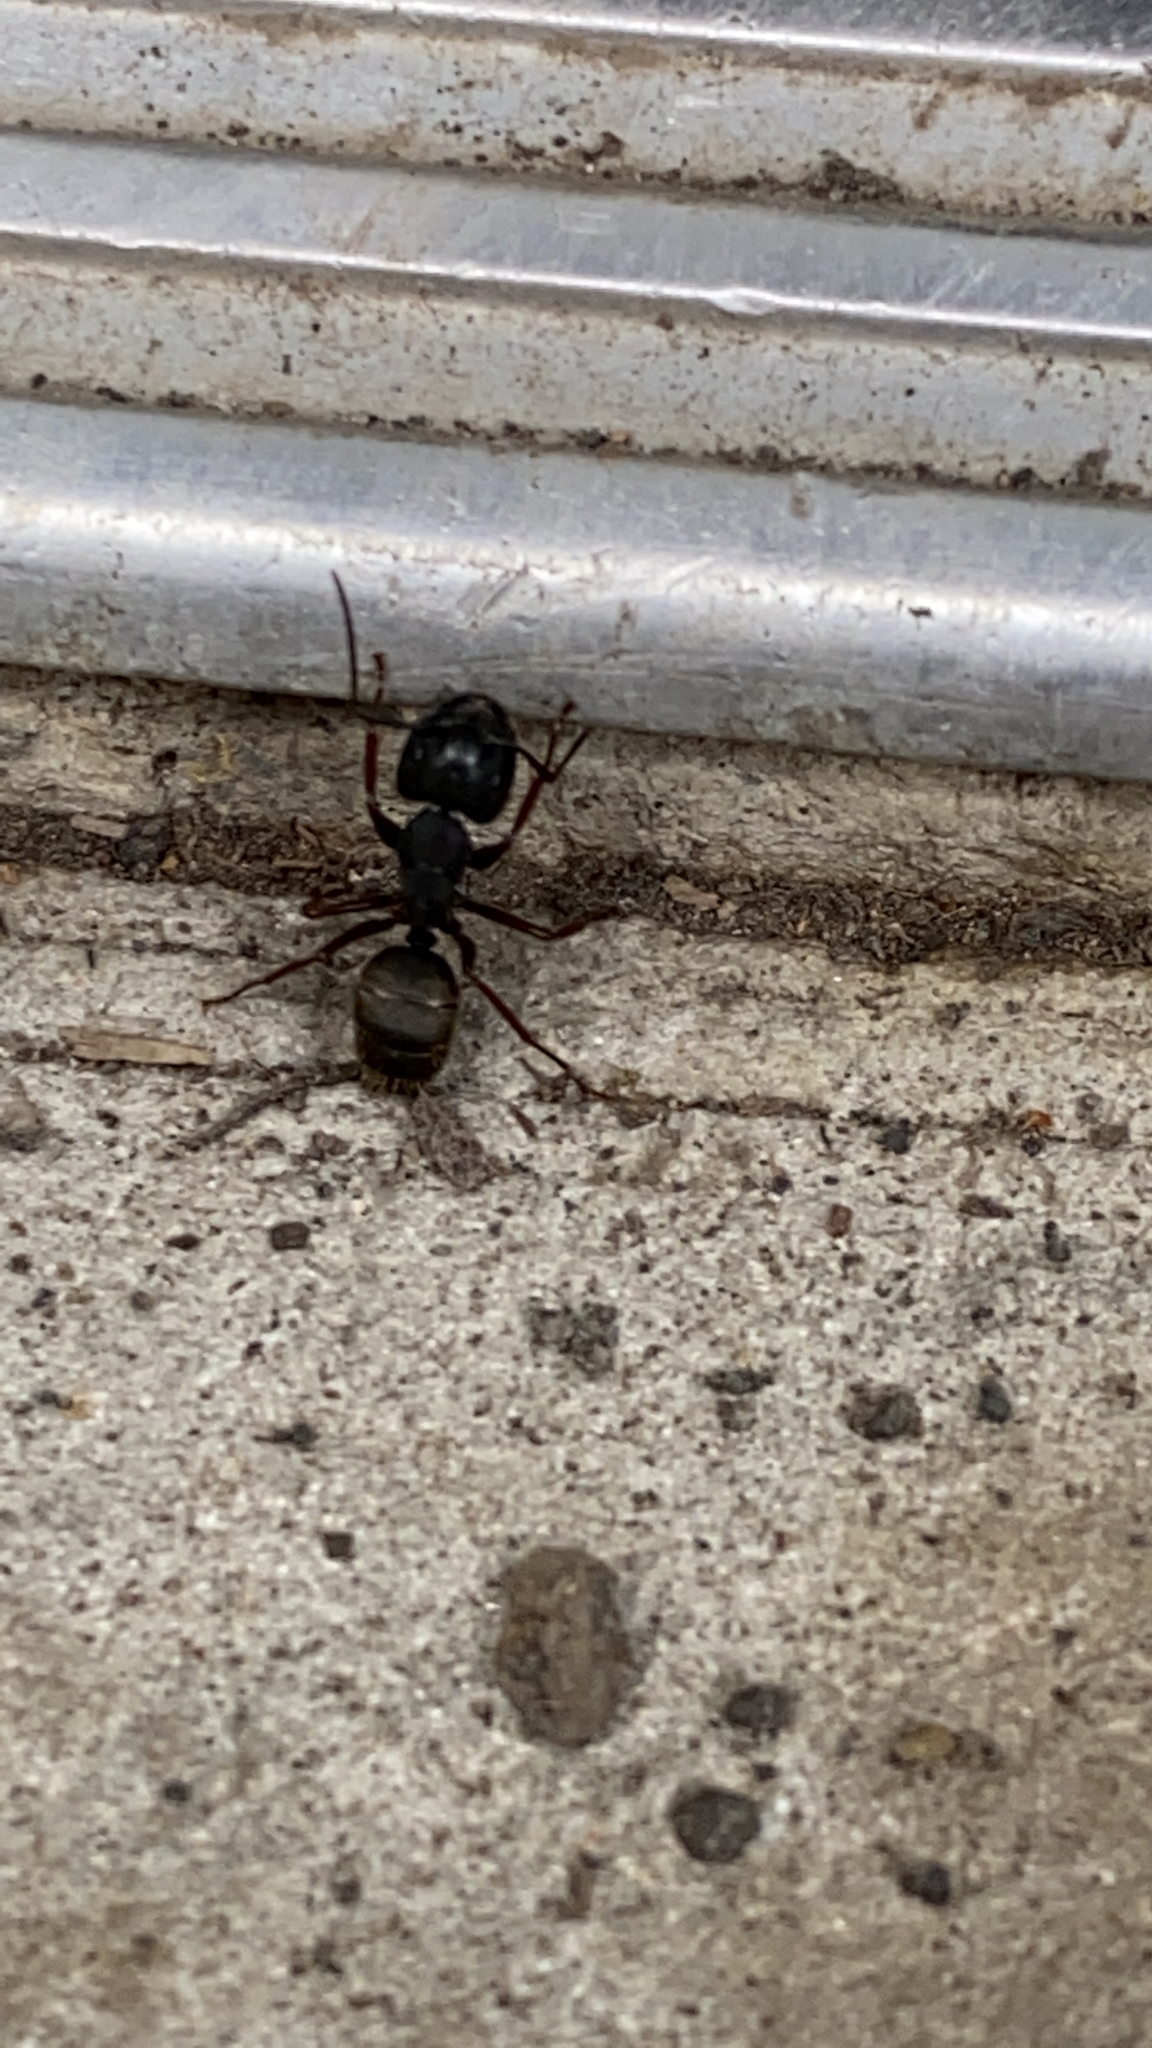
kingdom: Animalia
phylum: Arthropoda
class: Insecta
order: Hymenoptera
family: Formicidae
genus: Camponotus
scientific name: Camponotus modoc
